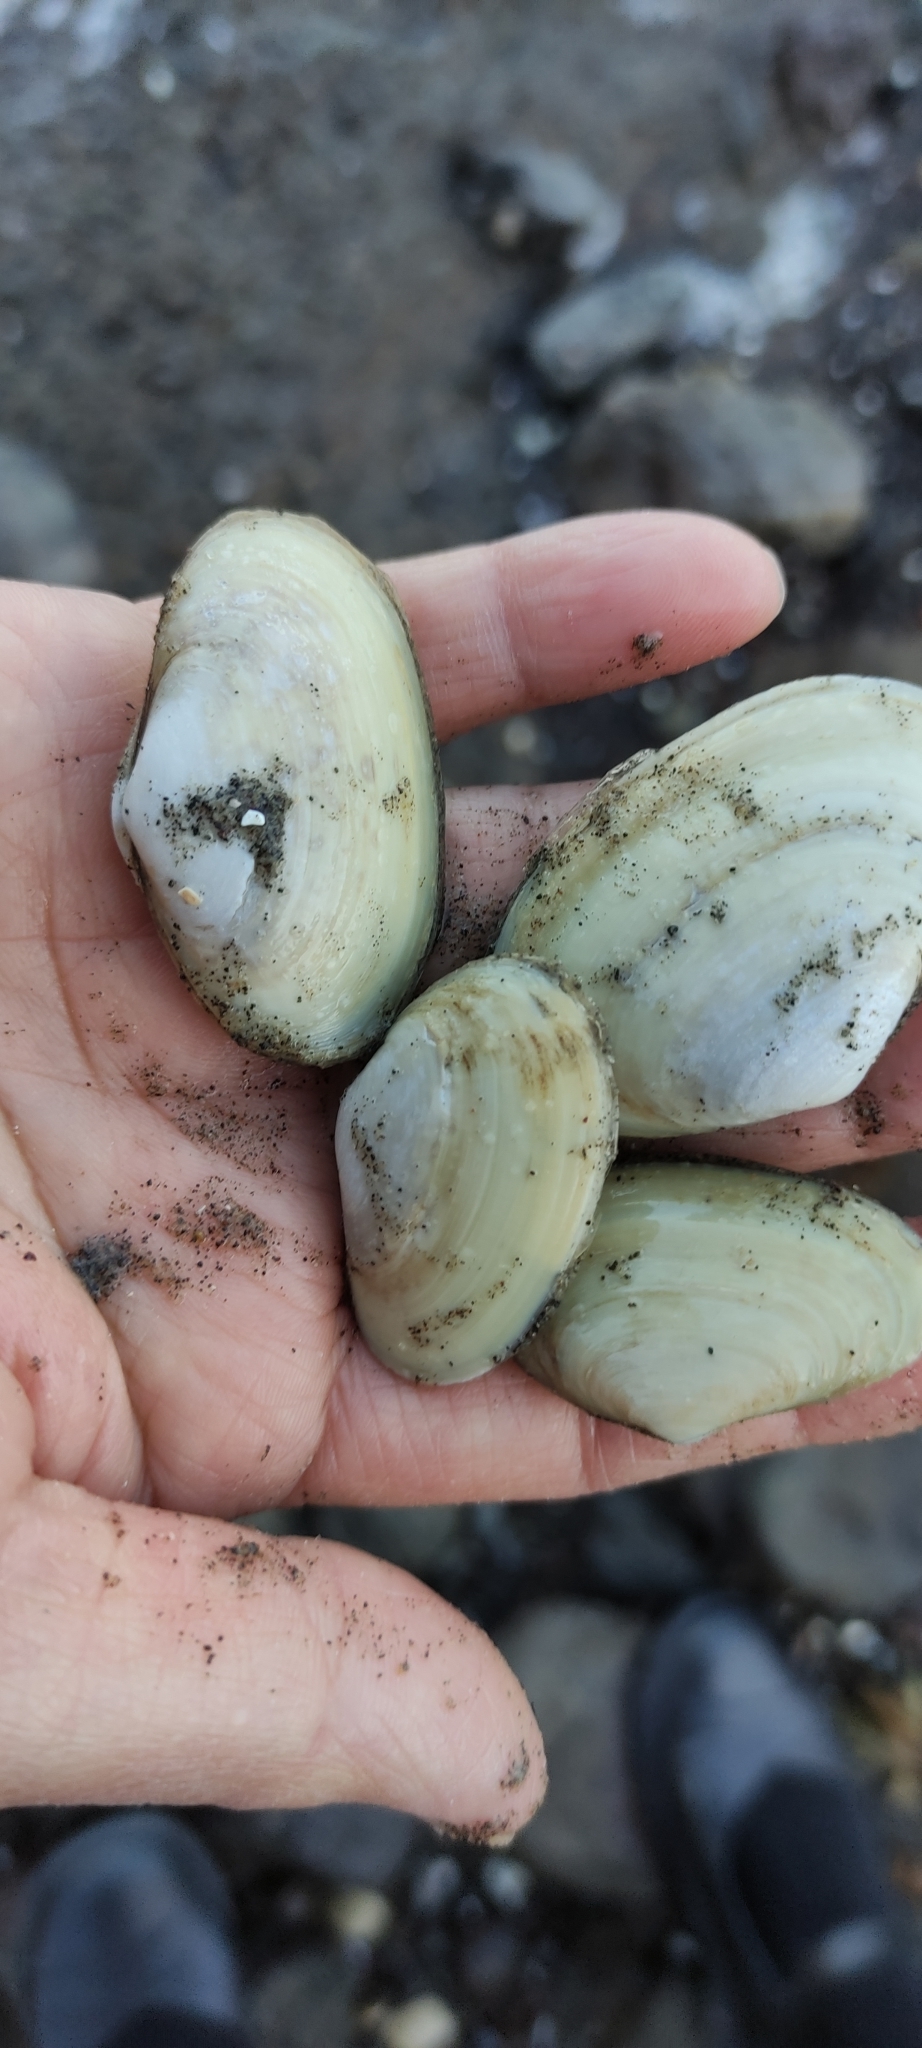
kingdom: Animalia
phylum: Mollusca
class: Bivalvia
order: Venerida
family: Mesodesmatidae
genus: Paphies
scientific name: Paphies australis
